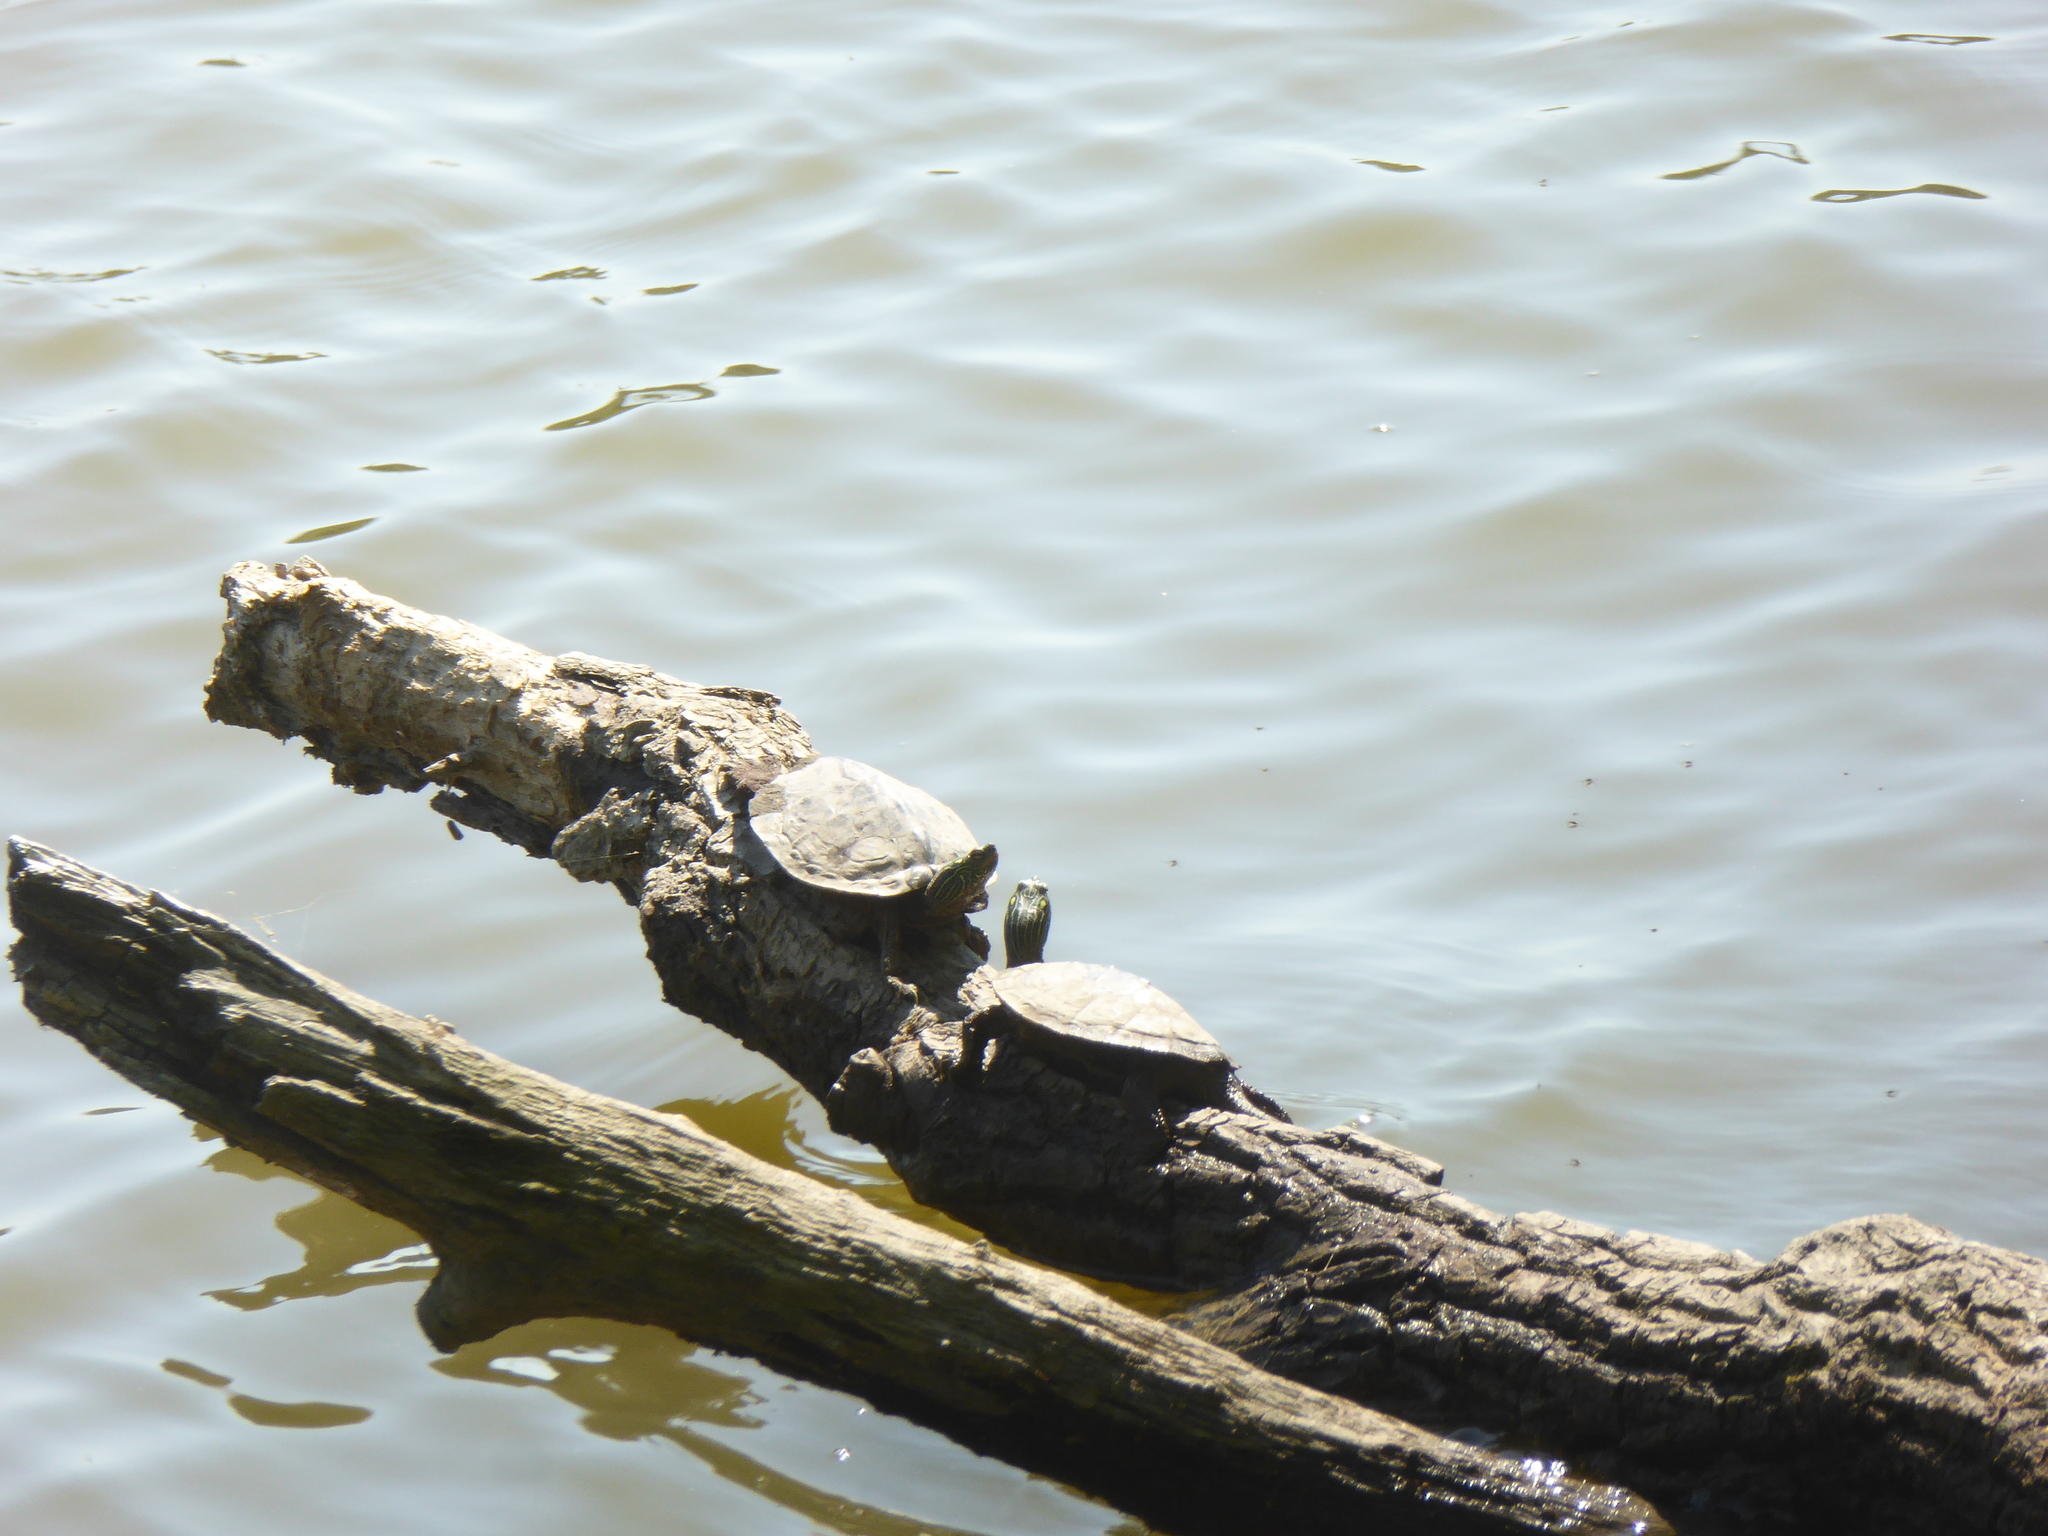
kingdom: Animalia
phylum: Chordata
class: Testudines
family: Emydidae
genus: Graptemys
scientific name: Graptemys geographica
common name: Common map turtle
